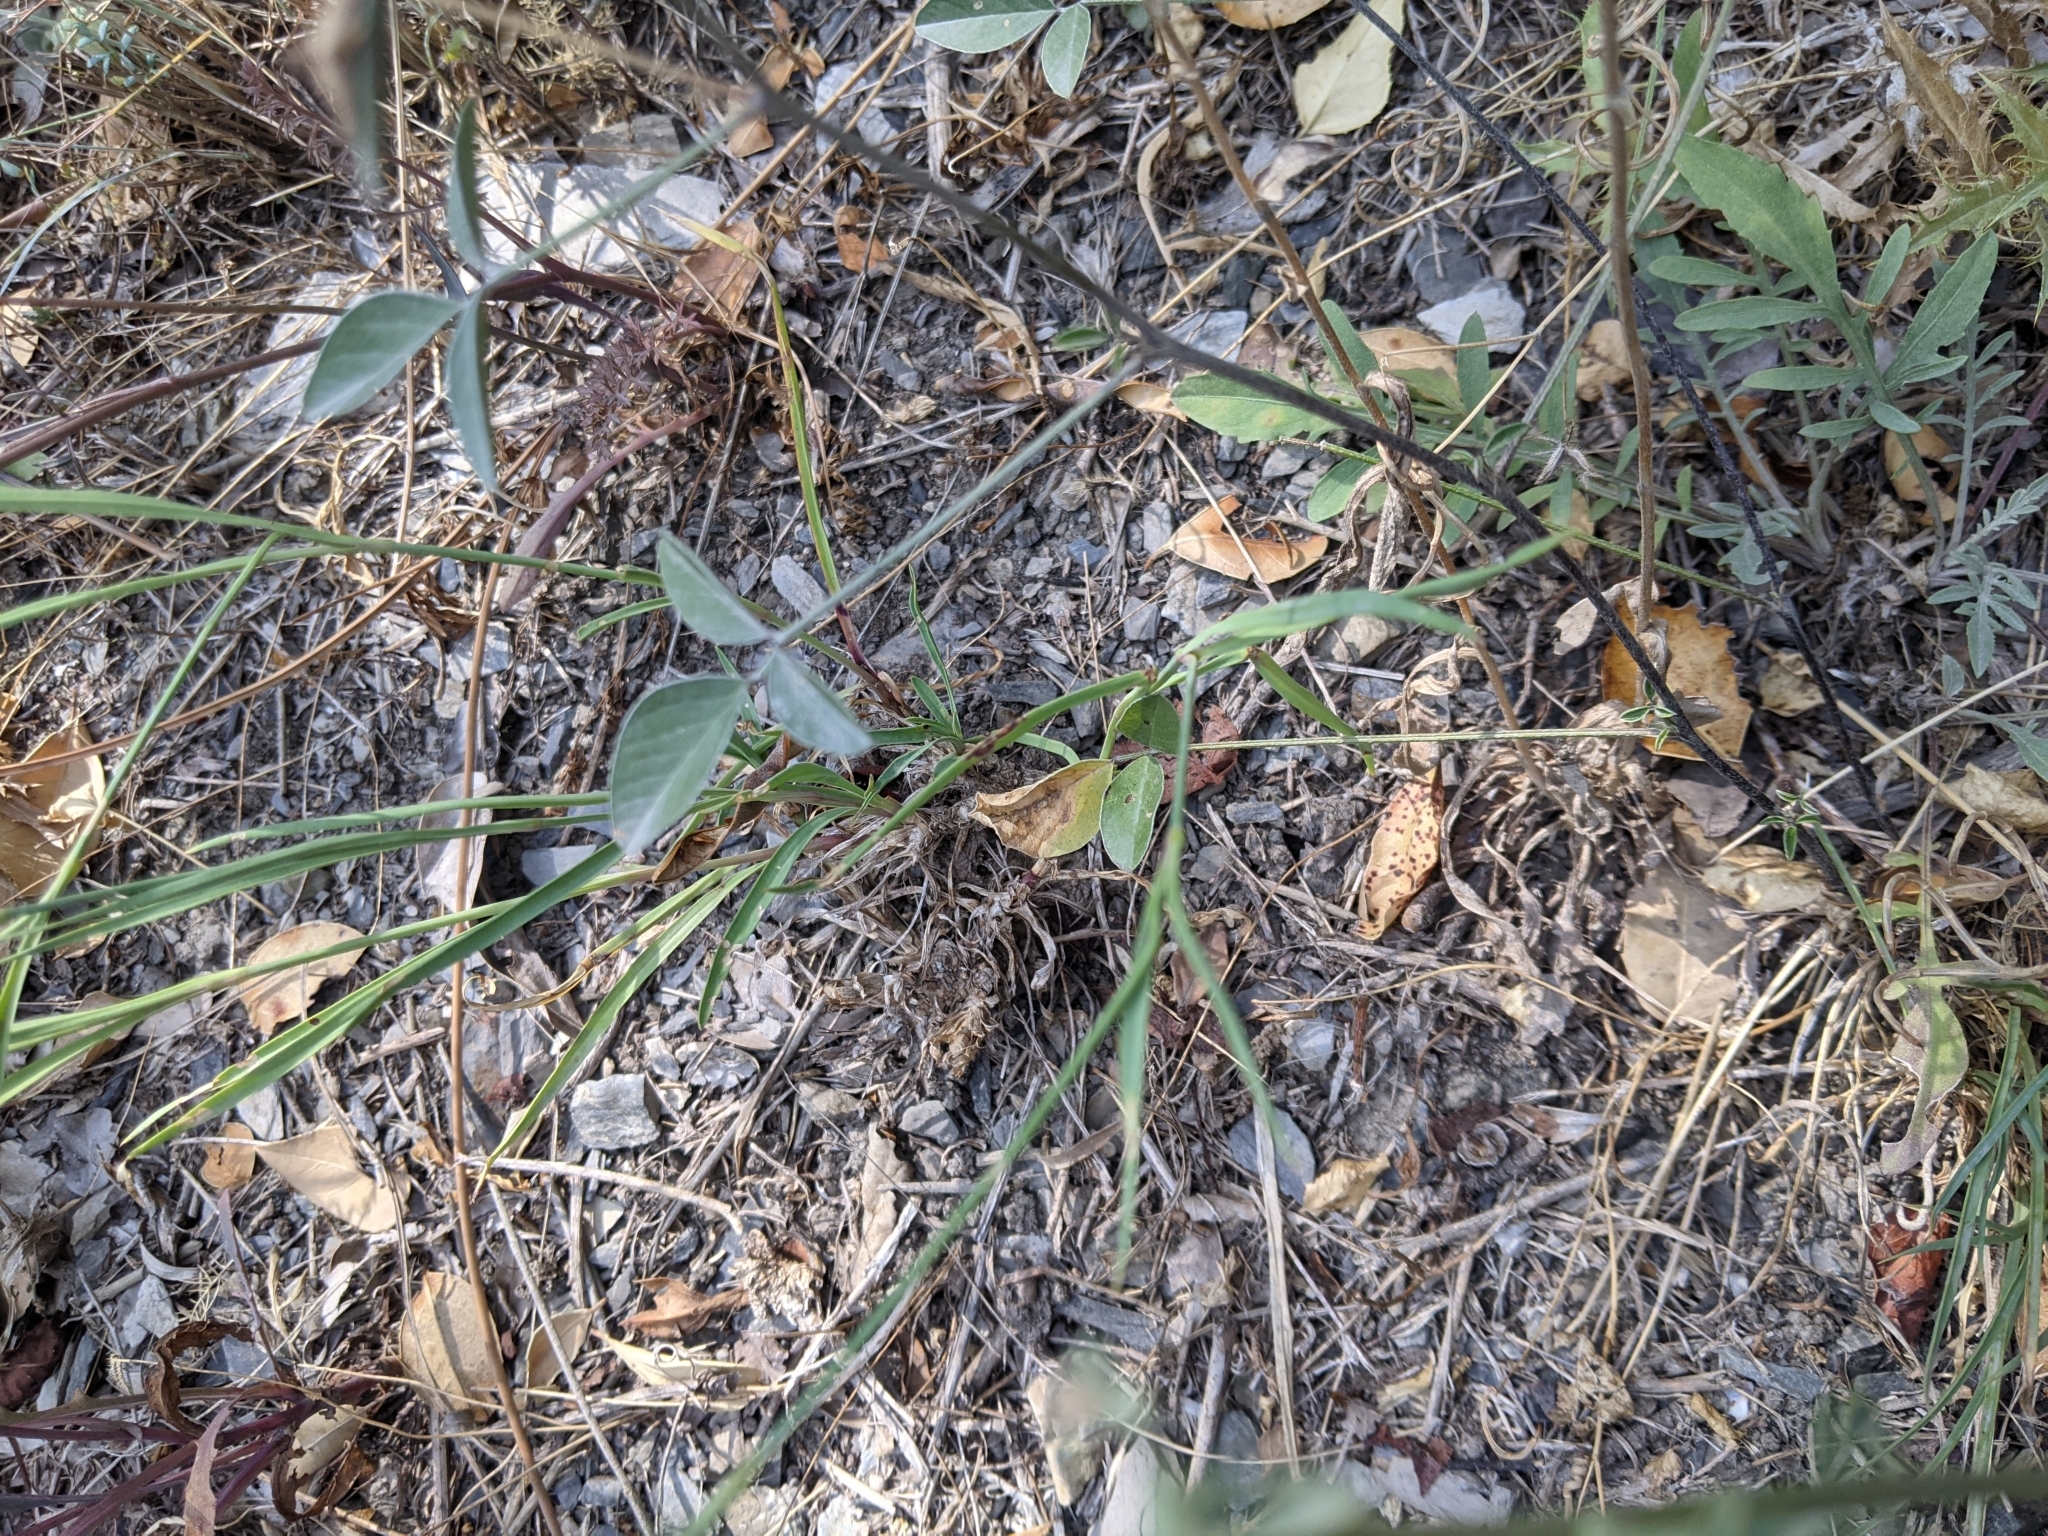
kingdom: Plantae
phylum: Tracheophyta
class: Magnoliopsida
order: Caryophyllales
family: Caryophyllaceae
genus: Dianthus
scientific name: Dianthus carthusianorum
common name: Carthusian pink
